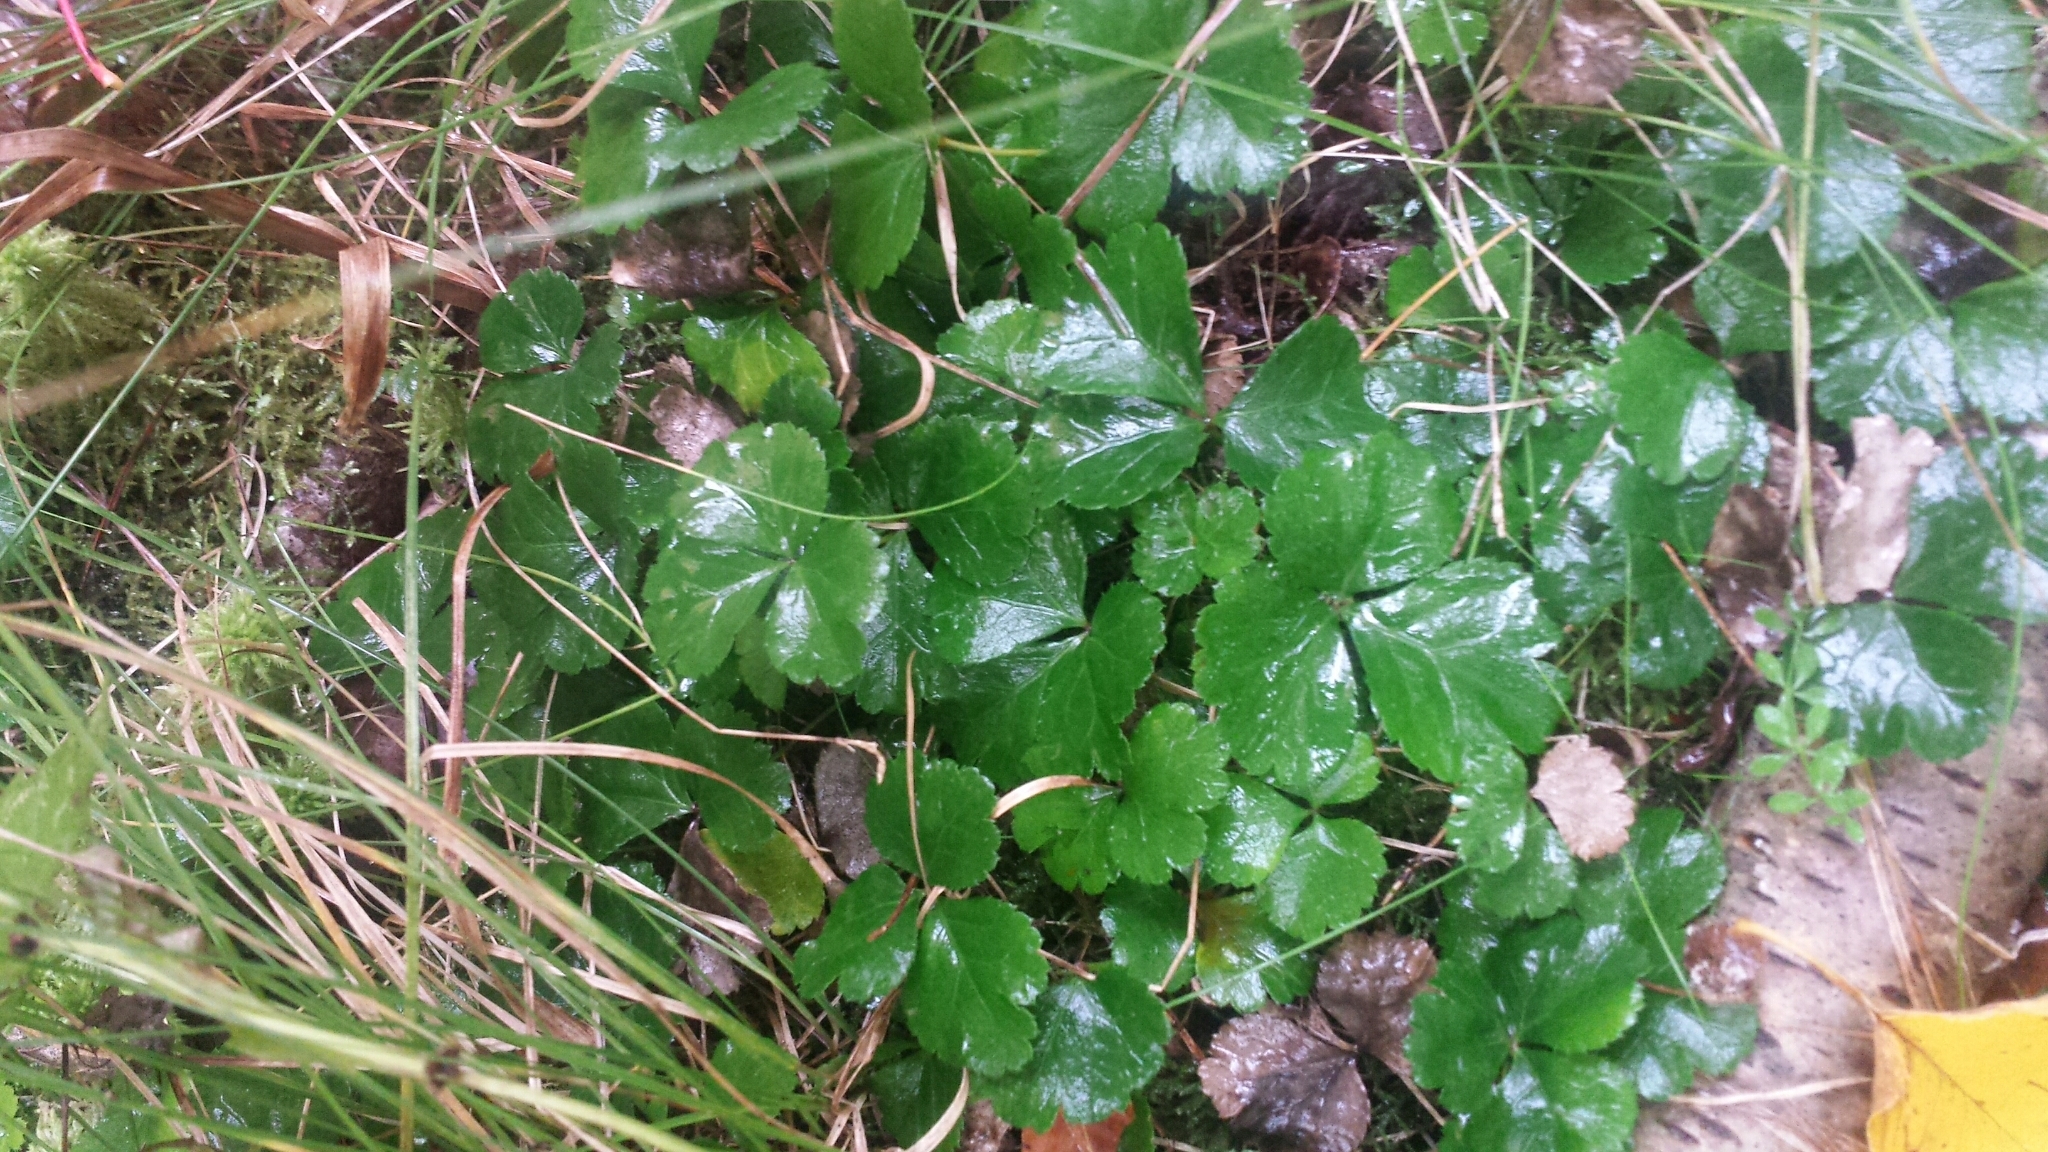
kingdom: Plantae
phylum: Tracheophyta
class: Magnoliopsida
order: Ranunculales
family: Ranunculaceae
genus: Coptis
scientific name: Coptis trifolia
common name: Canker-root
